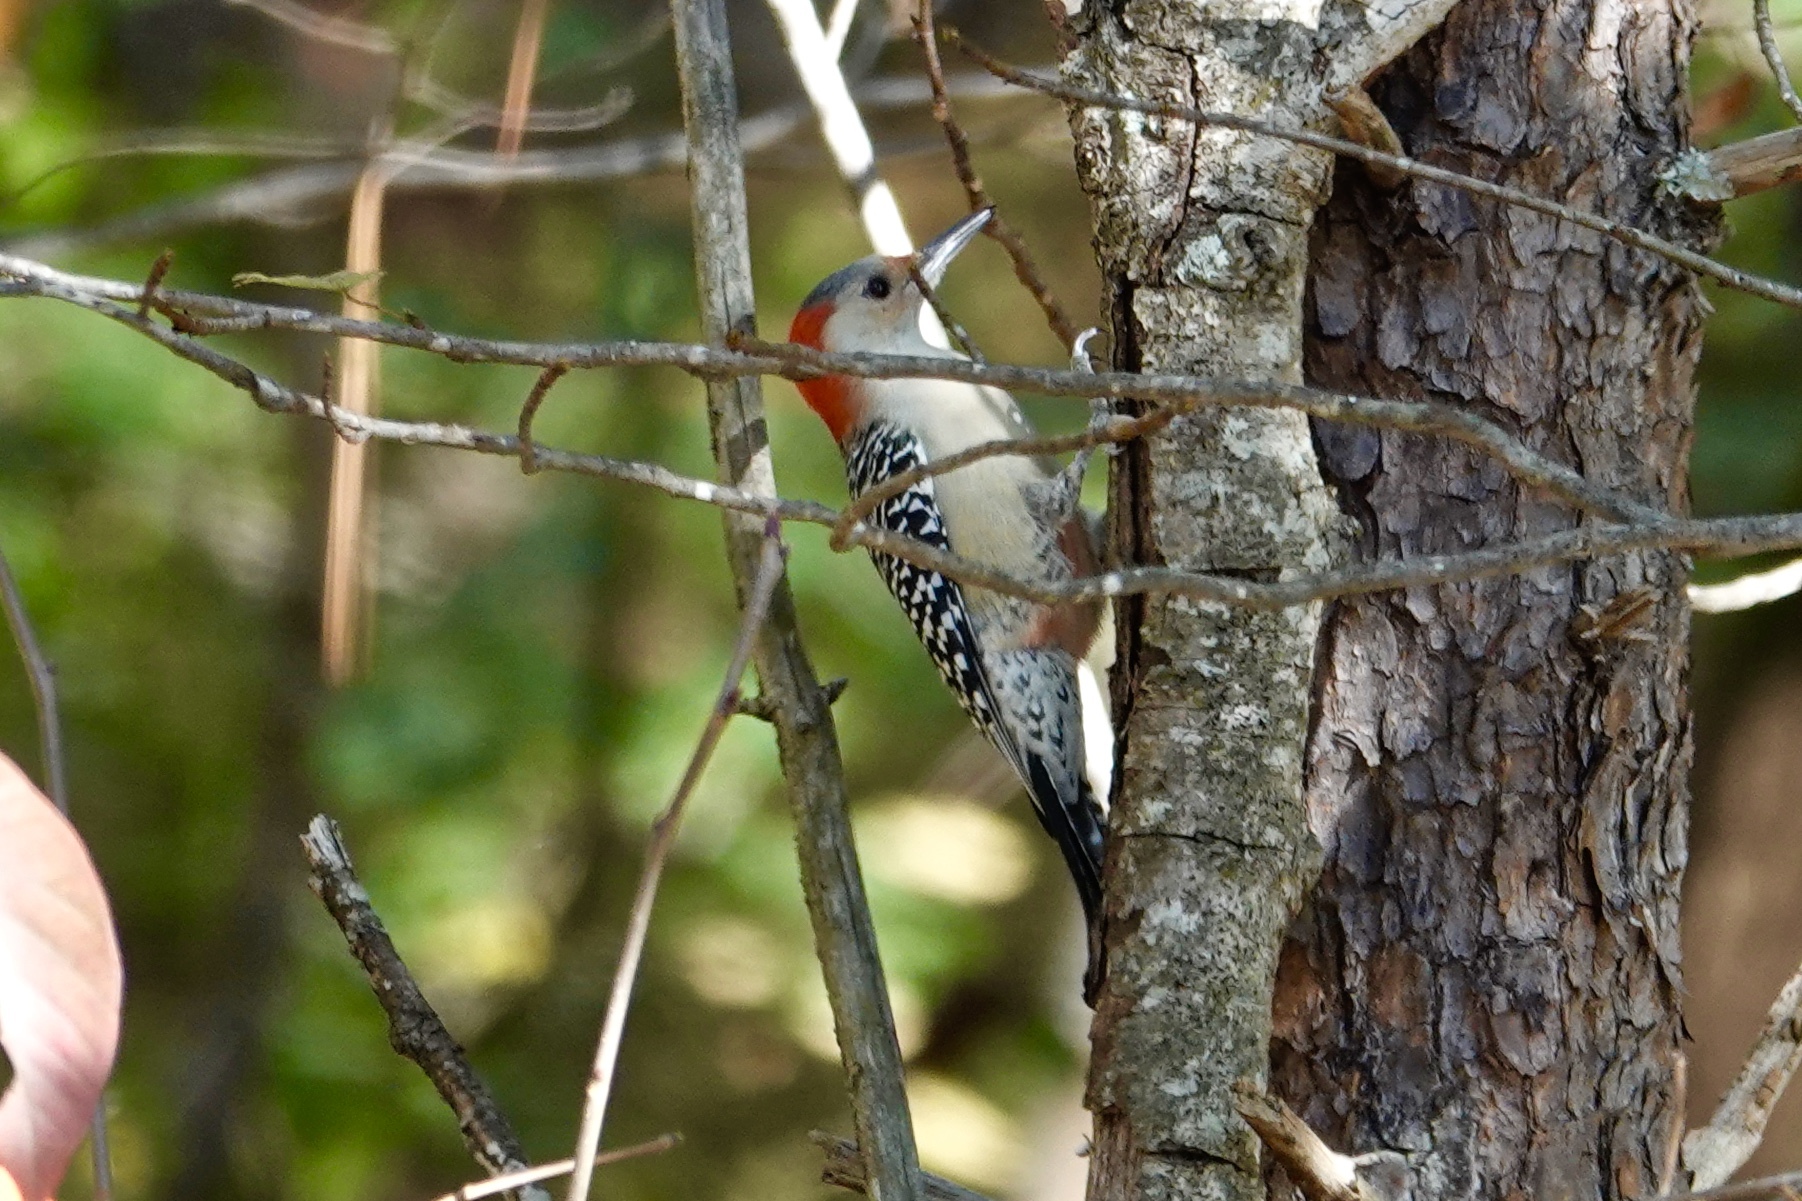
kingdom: Animalia
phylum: Chordata
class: Aves
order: Piciformes
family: Picidae
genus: Melanerpes
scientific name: Melanerpes carolinus
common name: Red-bellied woodpecker
